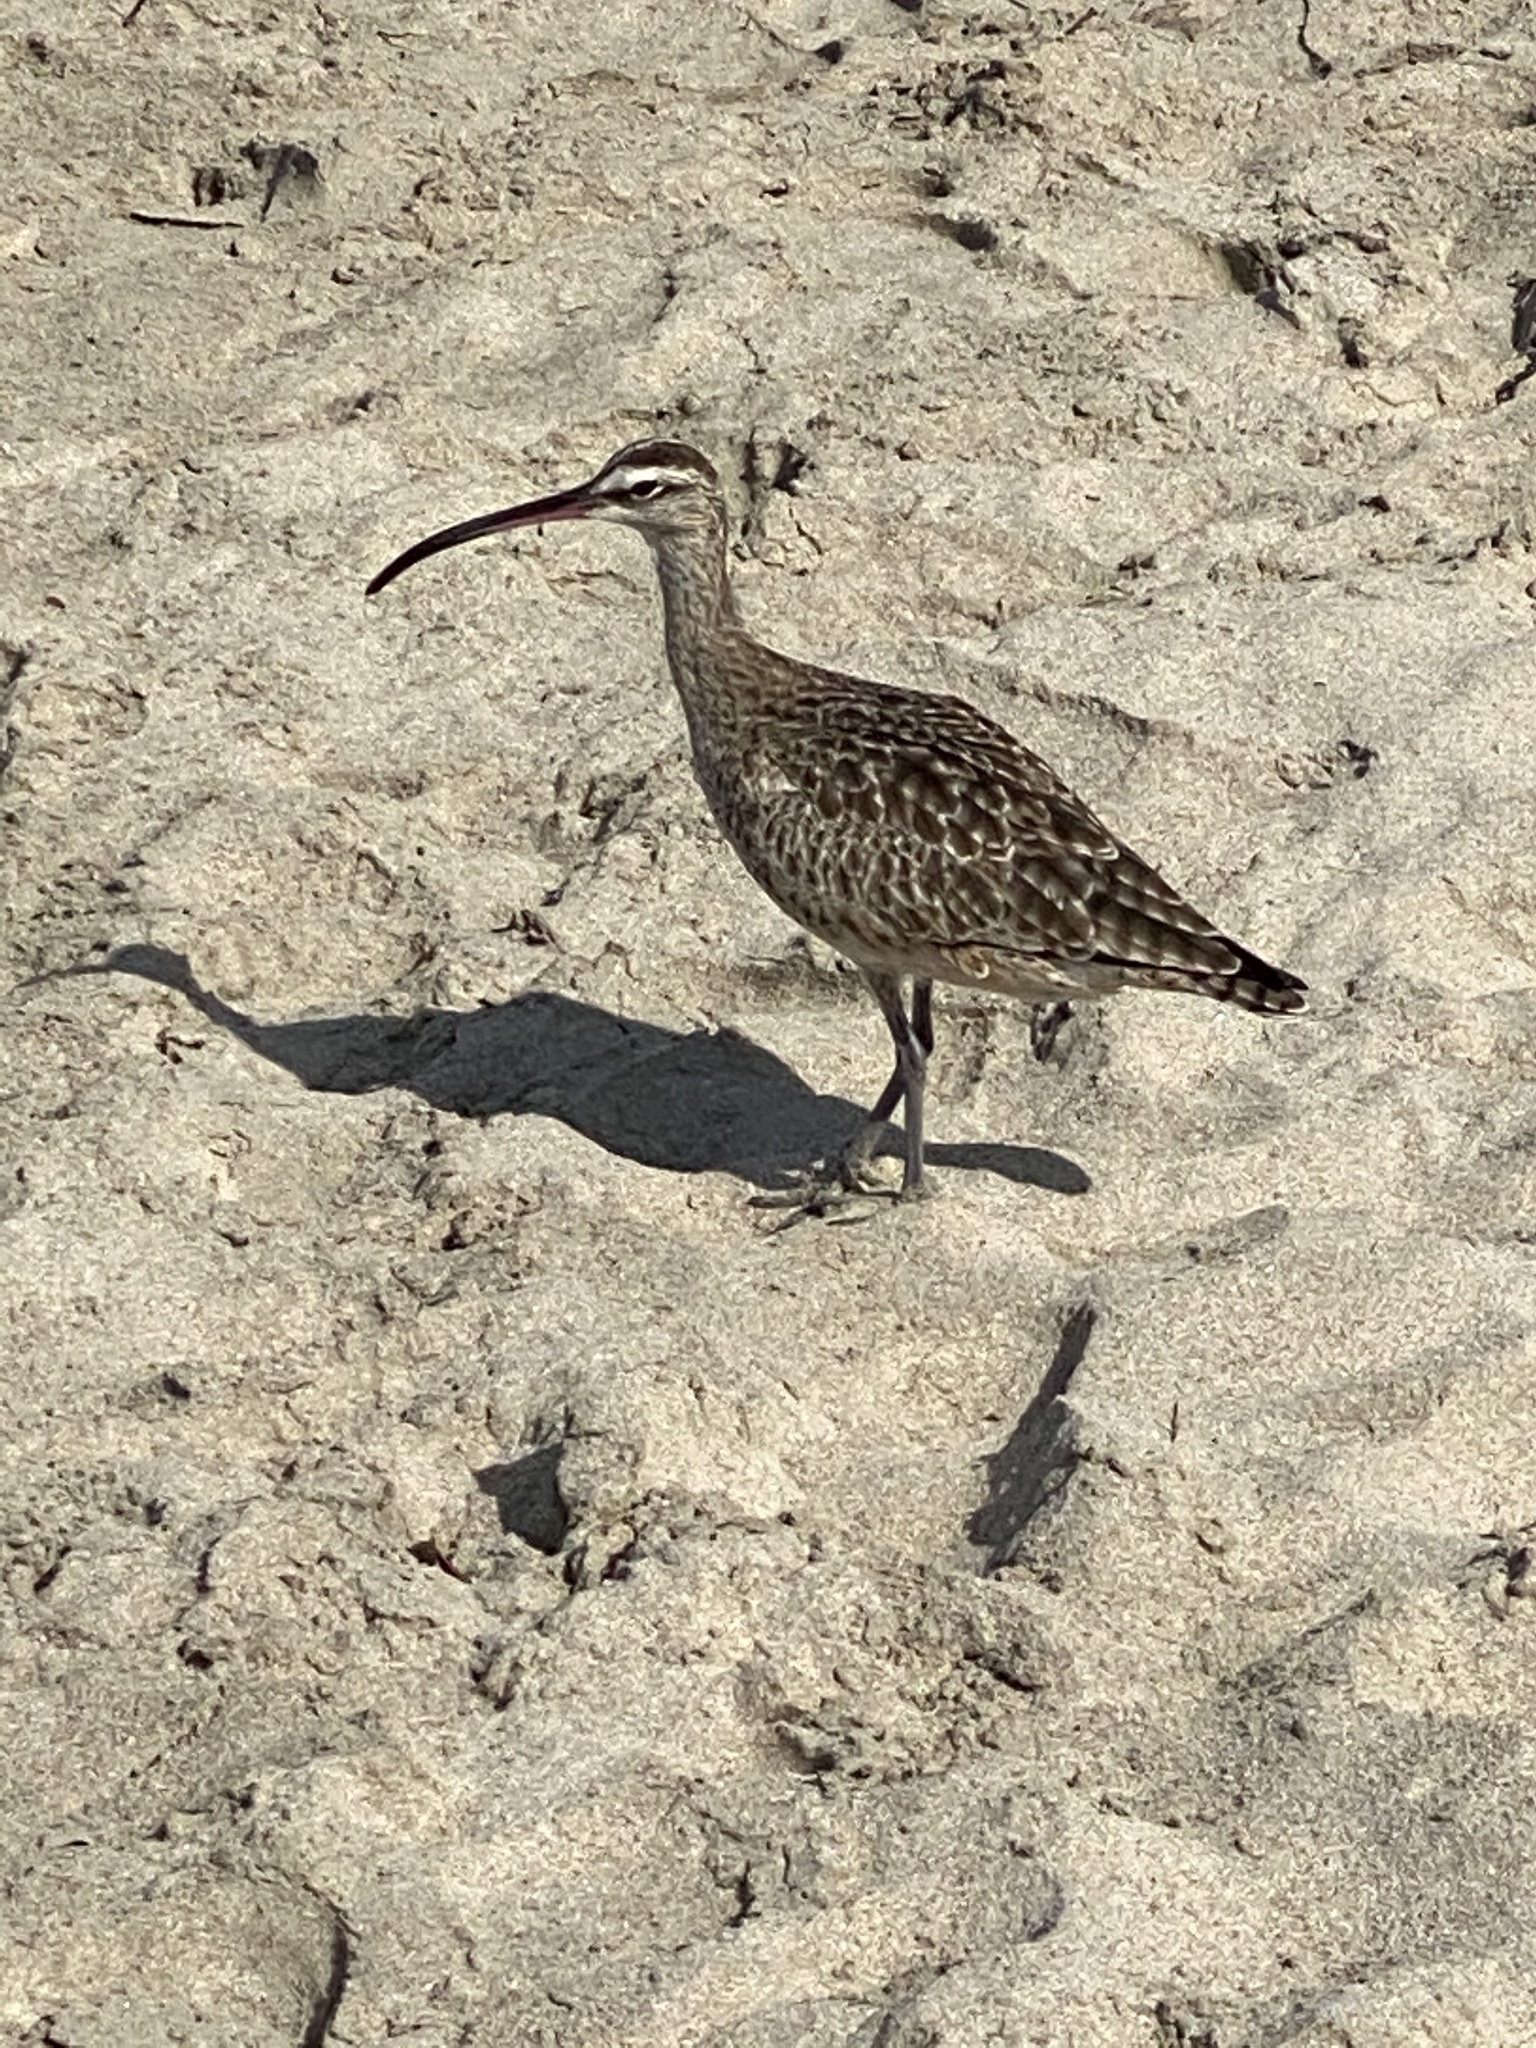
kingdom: Animalia
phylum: Chordata
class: Aves
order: Charadriiformes
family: Scolopacidae
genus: Numenius
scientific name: Numenius phaeopus
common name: Whimbrel
